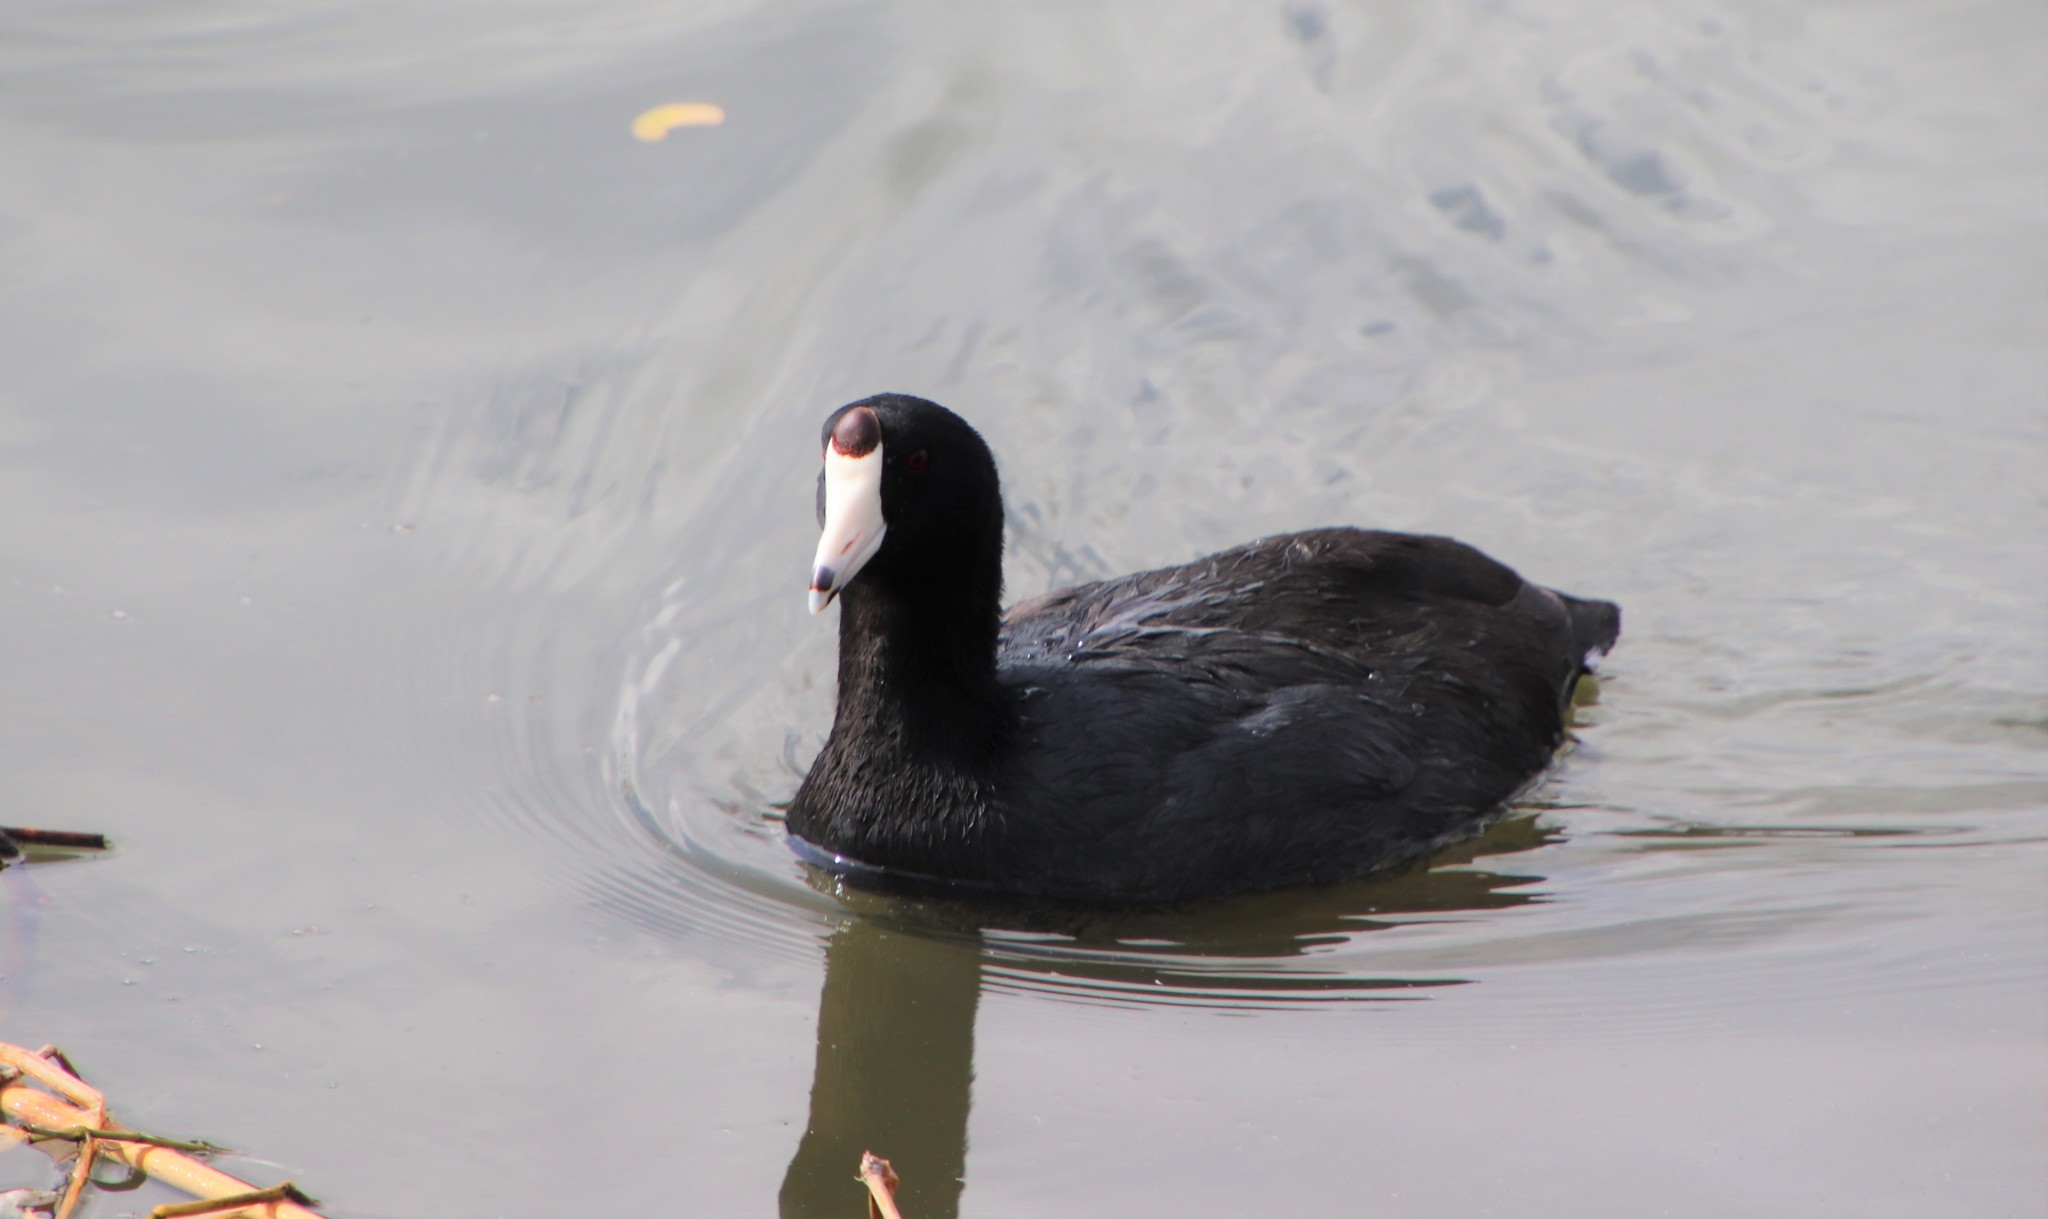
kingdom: Animalia
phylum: Chordata
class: Aves
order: Gruiformes
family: Rallidae
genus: Fulica
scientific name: Fulica americana
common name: American coot
